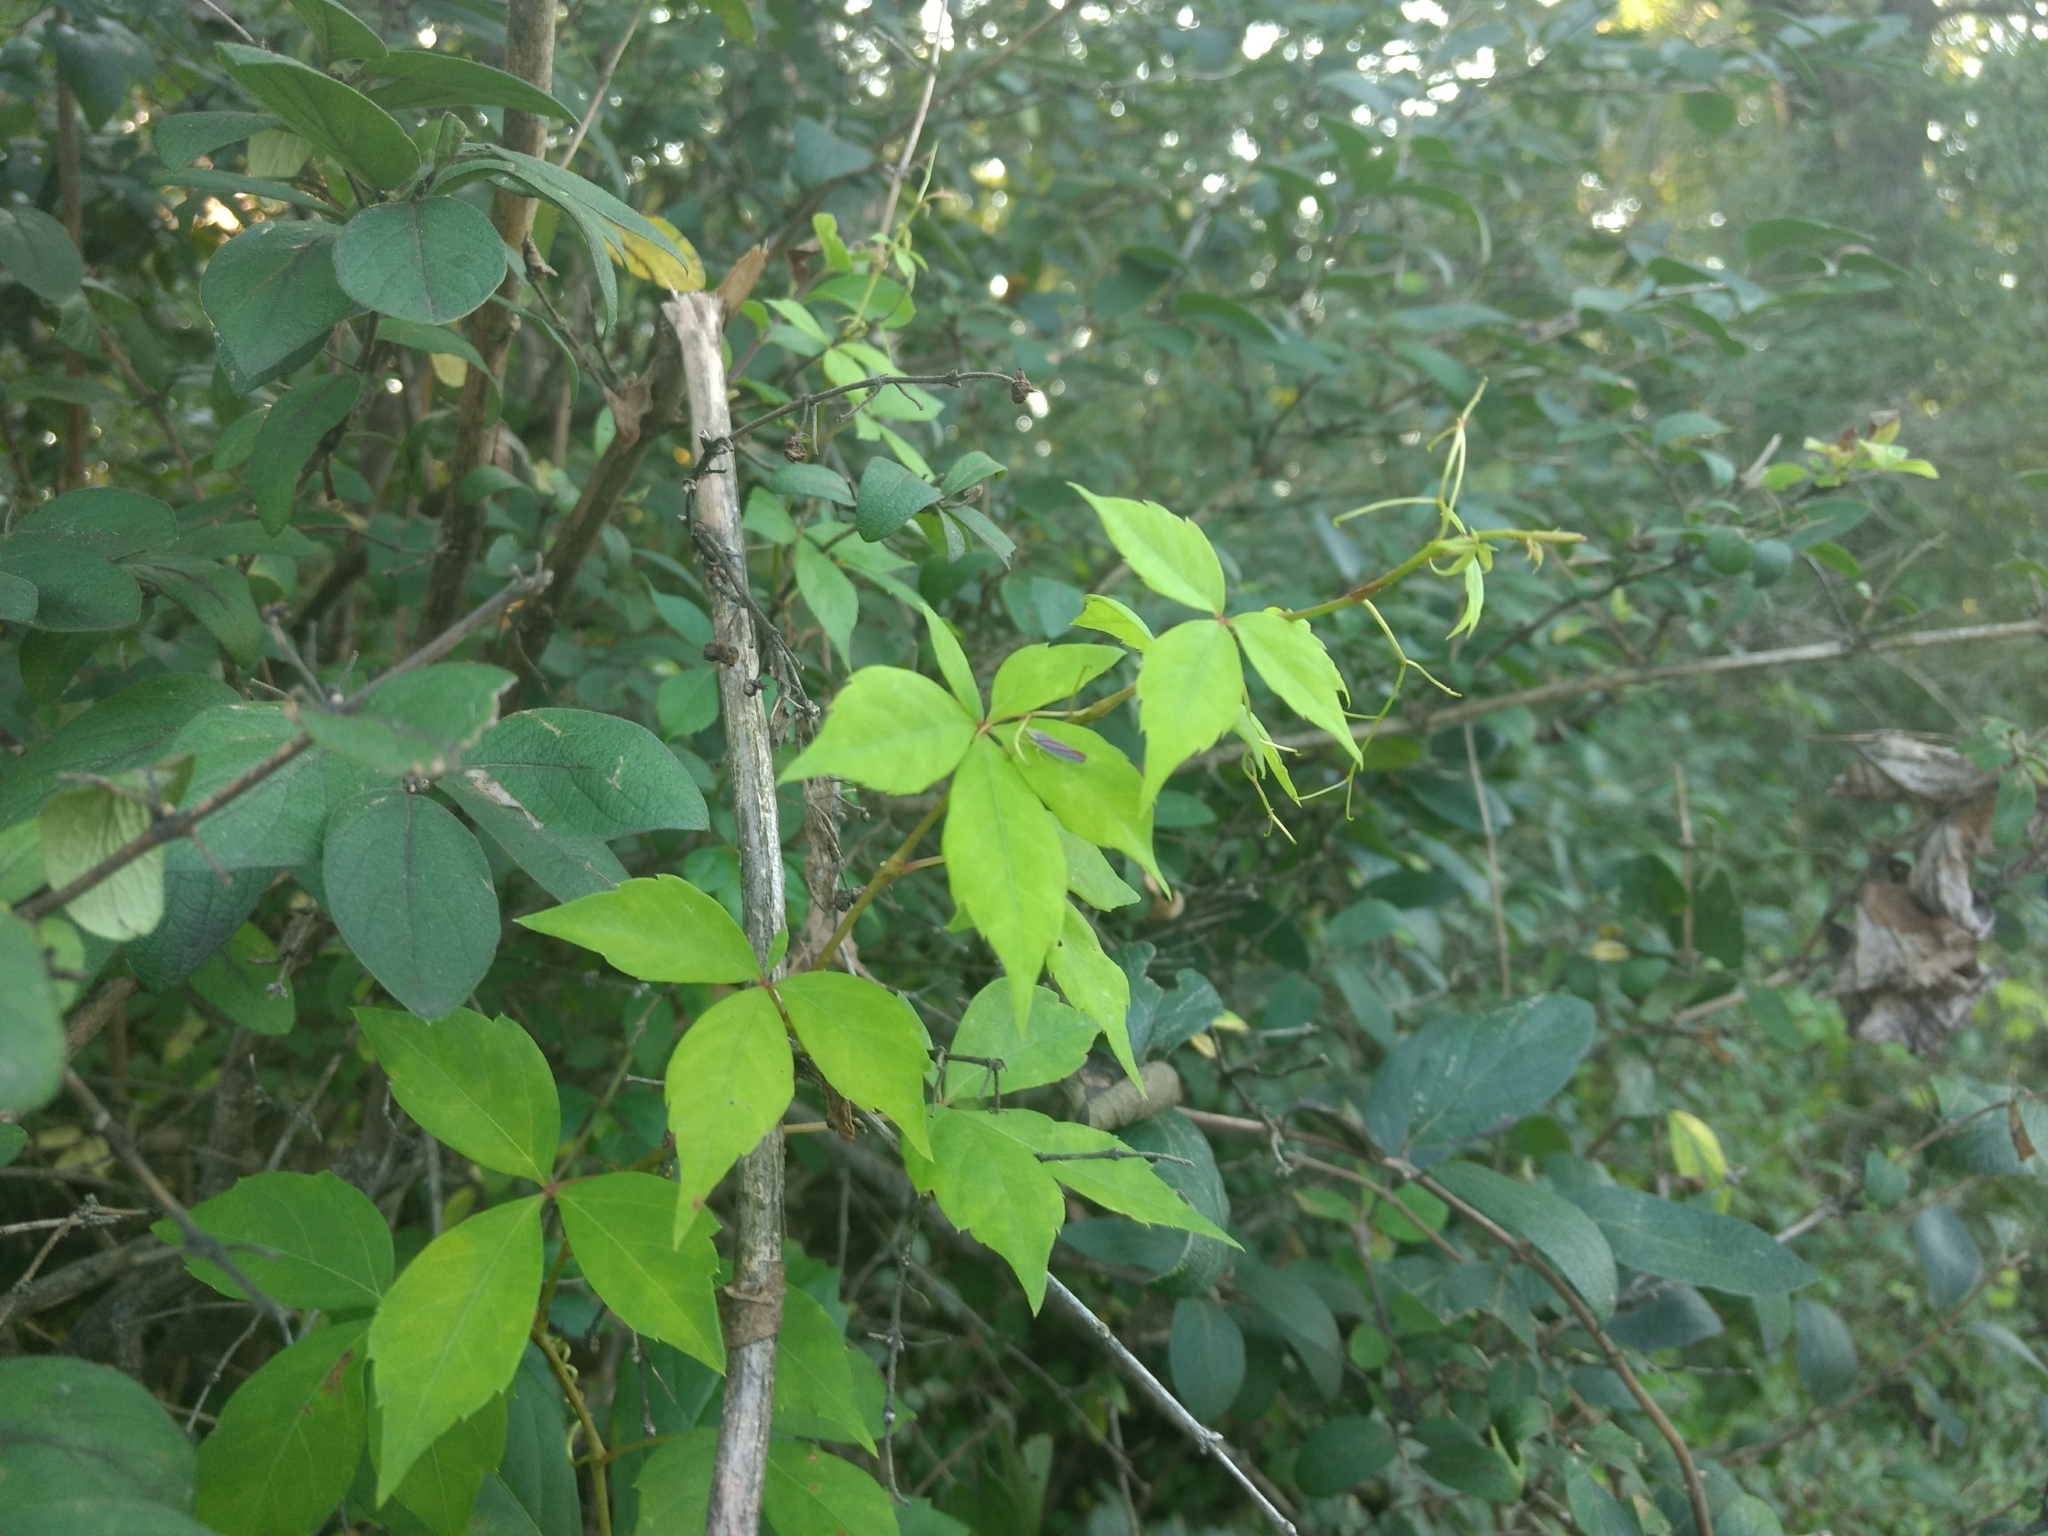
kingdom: Plantae
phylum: Tracheophyta
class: Magnoliopsida
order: Vitales
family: Vitaceae
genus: Parthenocissus
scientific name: Parthenocissus quinquefolia
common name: Virginia-creeper
